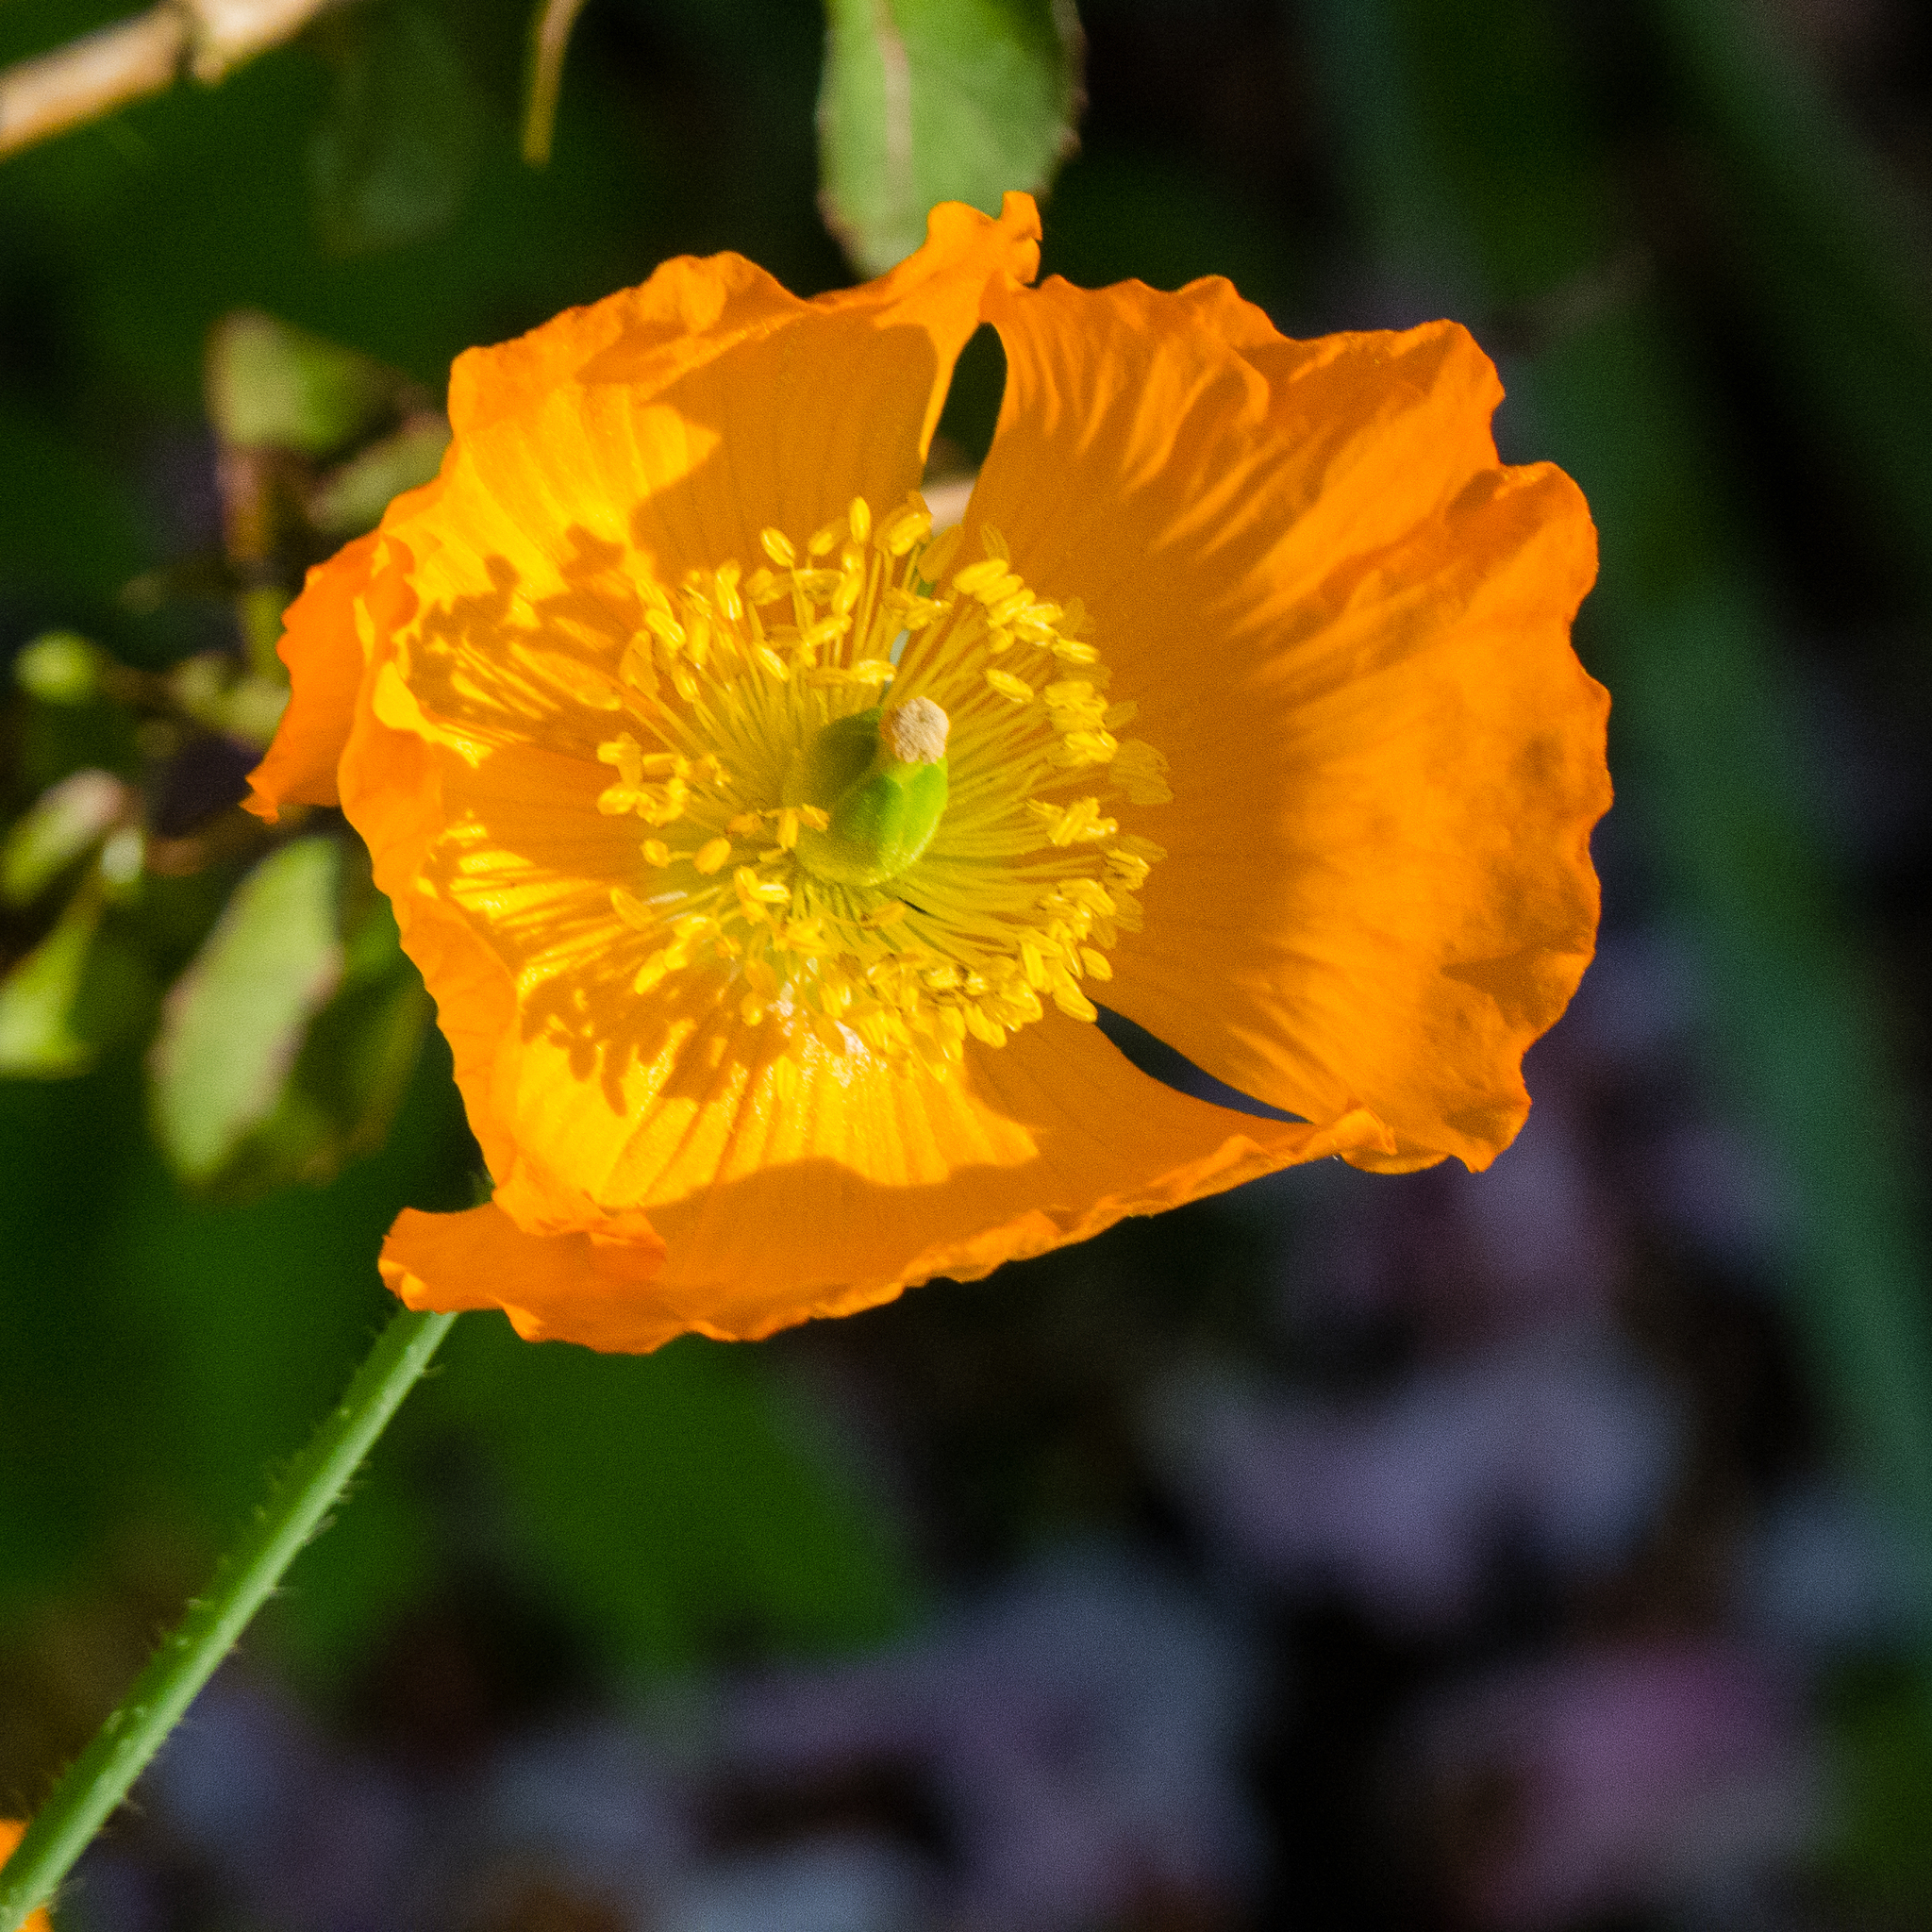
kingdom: Plantae
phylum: Tracheophyta
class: Magnoliopsida
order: Ranunculales
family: Papaveraceae
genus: Papaver
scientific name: Papaver cambricum
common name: Poppy
